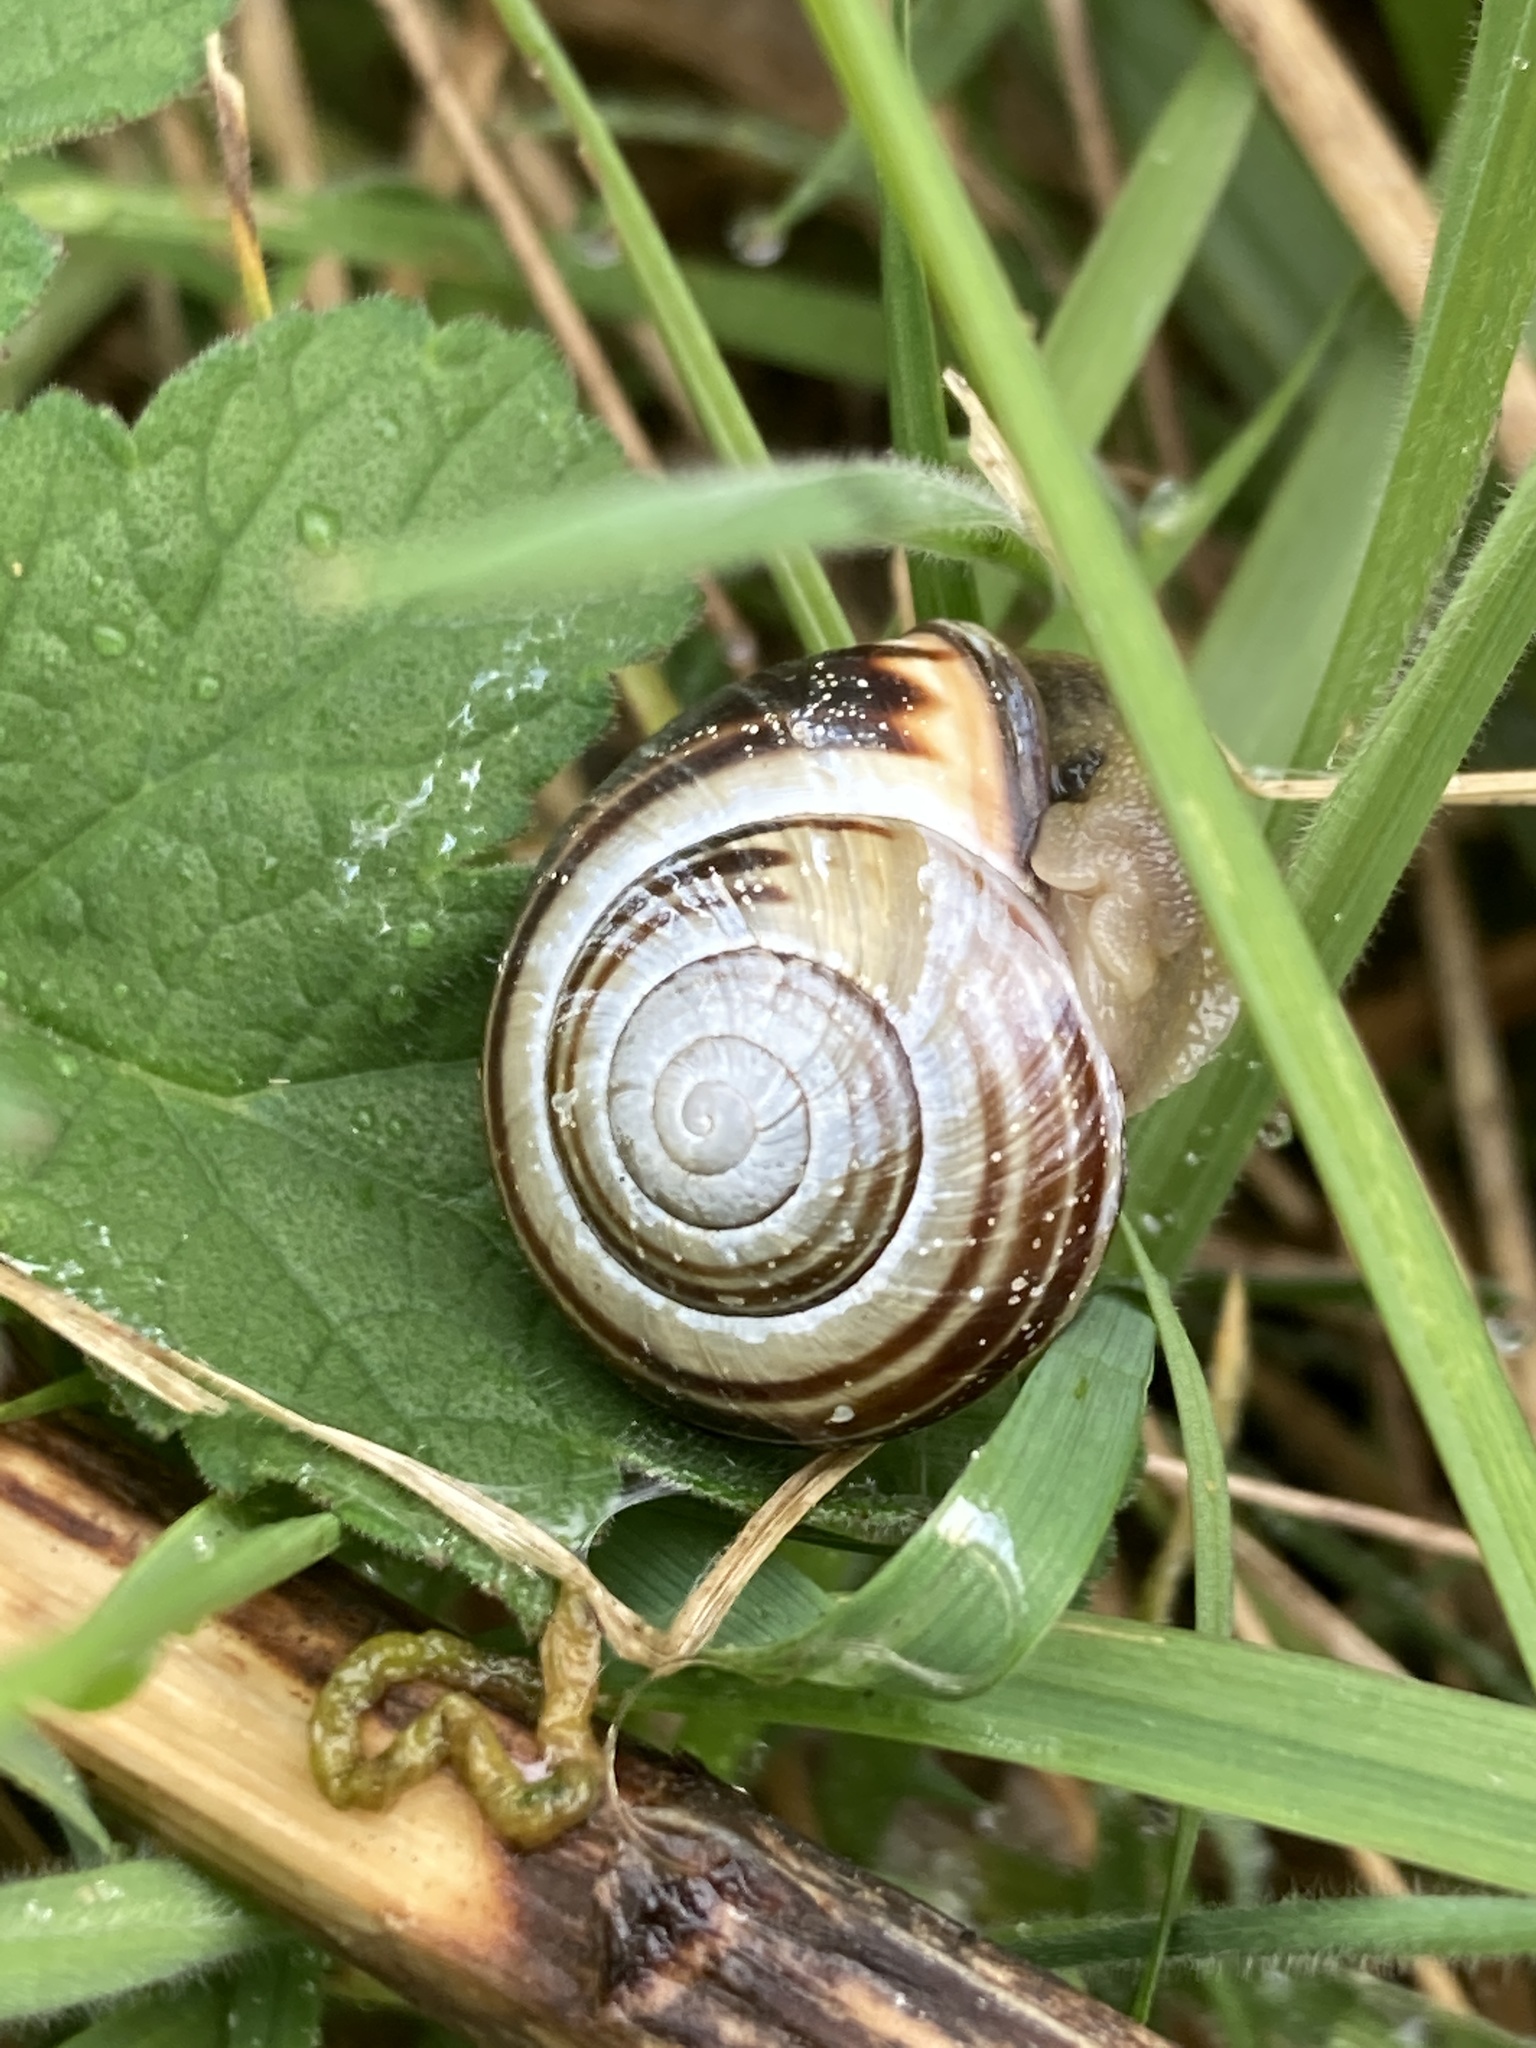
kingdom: Animalia
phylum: Mollusca
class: Gastropoda
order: Stylommatophora
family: Helicidae
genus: Cepaea
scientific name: Cepaea nemoralis
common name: Grovesnail
